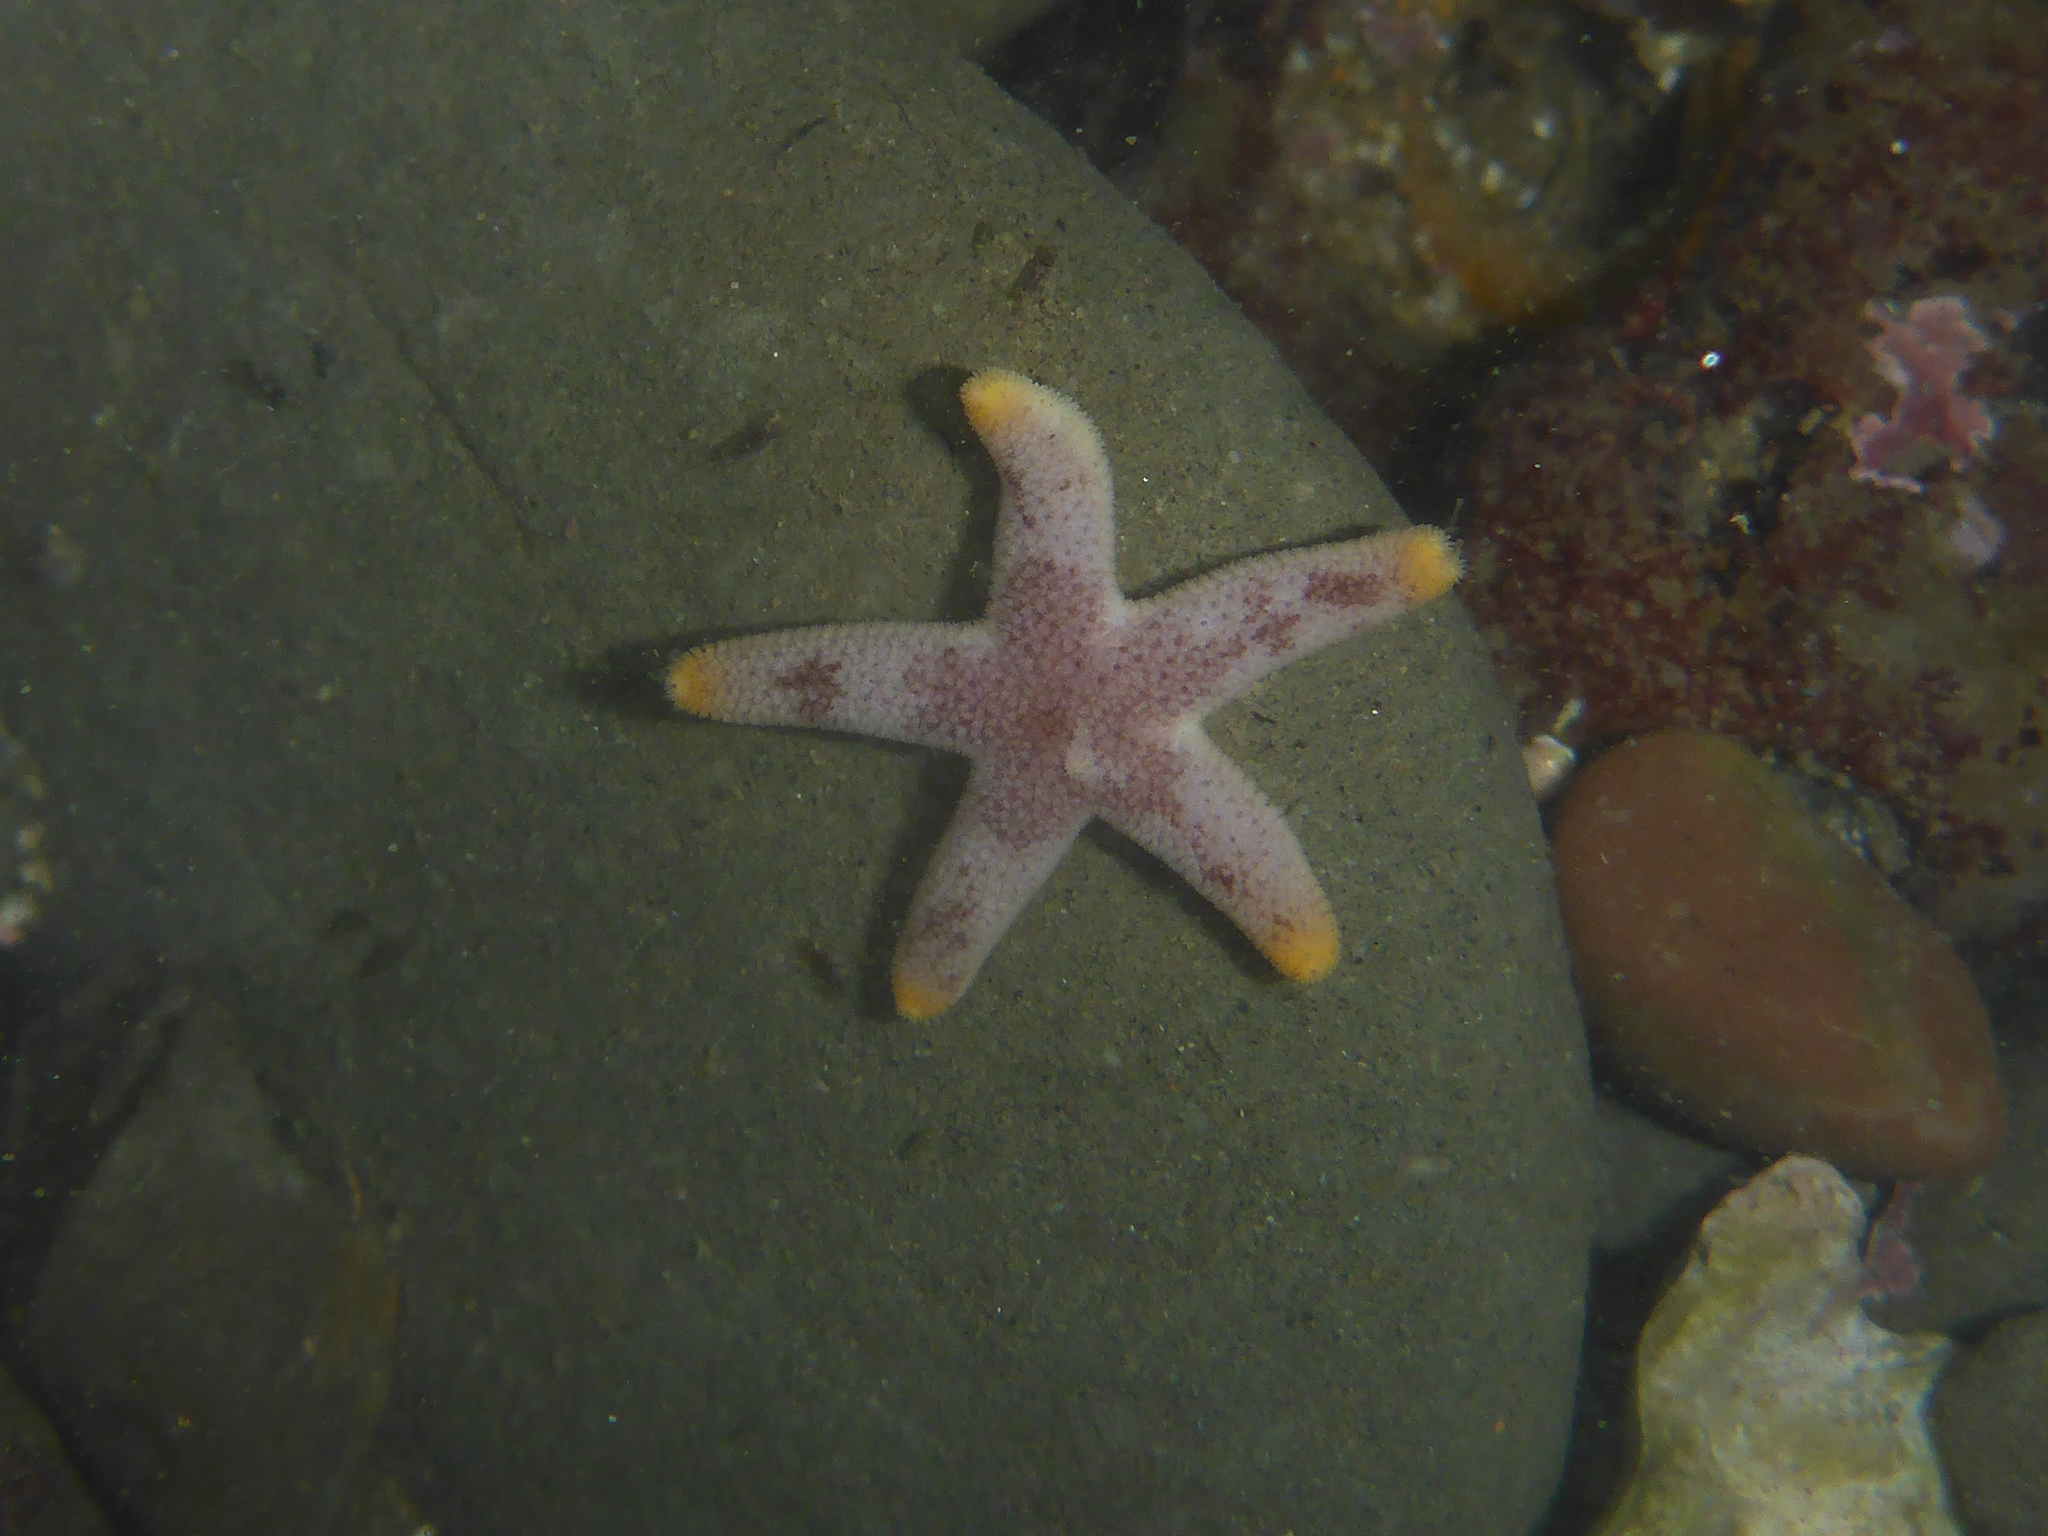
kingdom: Animalia
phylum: Echinodermata
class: Asteroidea
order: Spinulosida
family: Echinasteridae
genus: Henricia
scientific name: Henricia pumila
